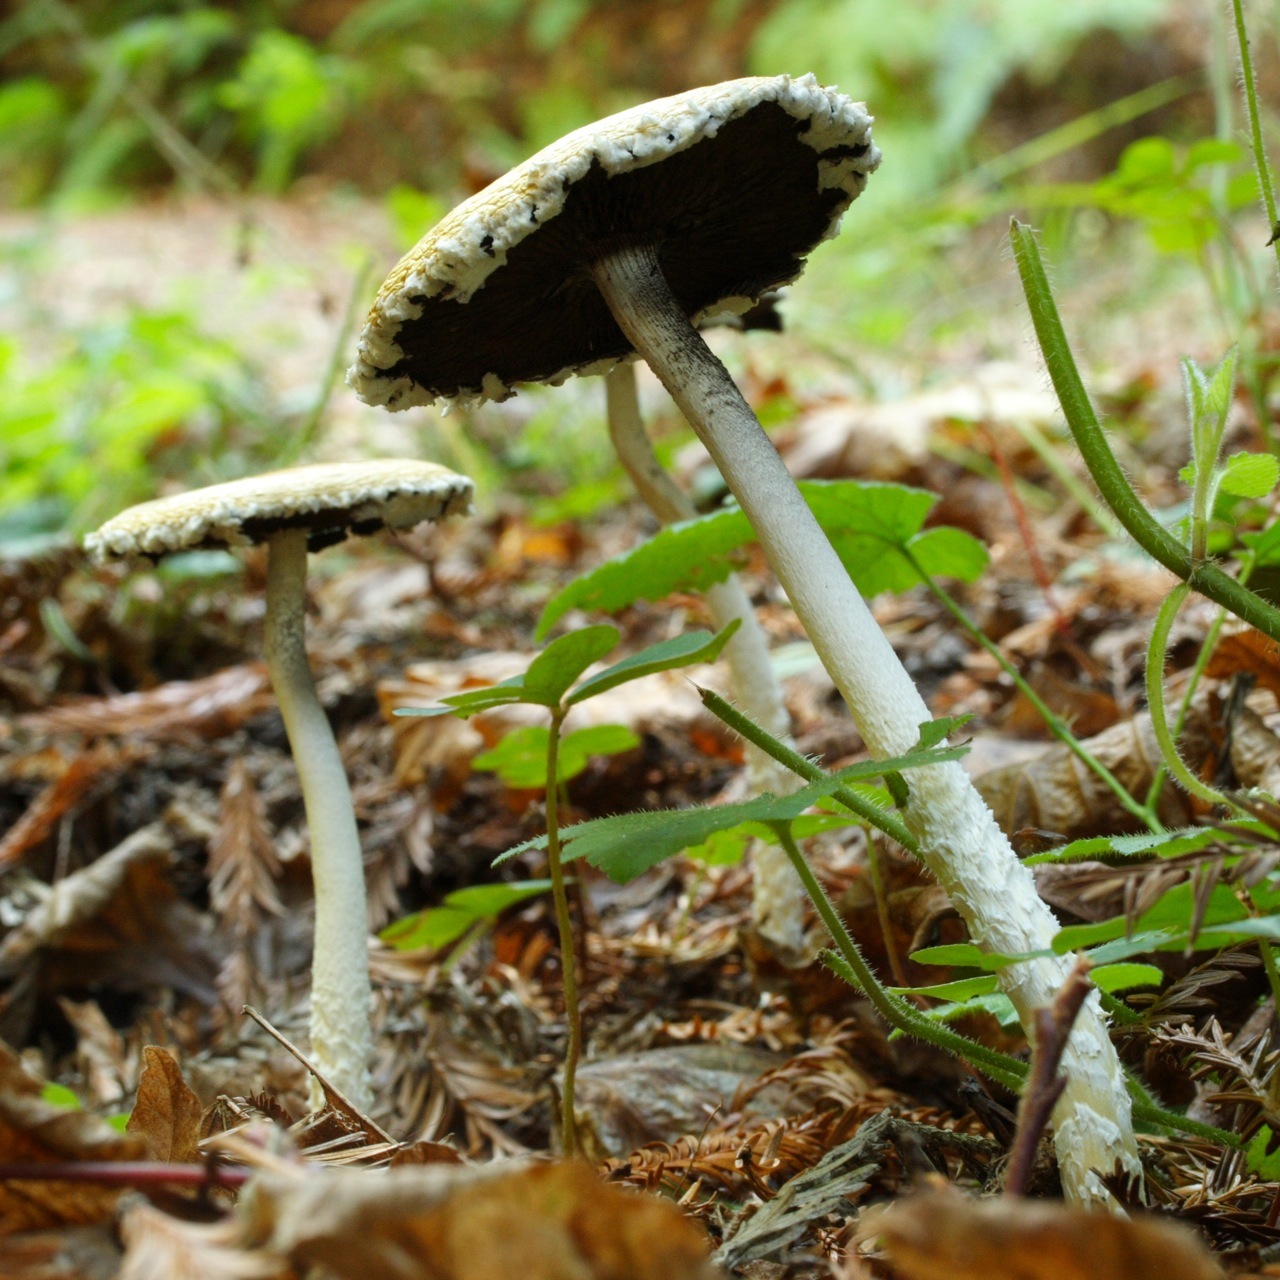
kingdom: Fungi
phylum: Basidiomycota
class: Agaricomycetes
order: Agaricales
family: Strophariaceae
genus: Stropharia
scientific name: Stropharia ambigua
